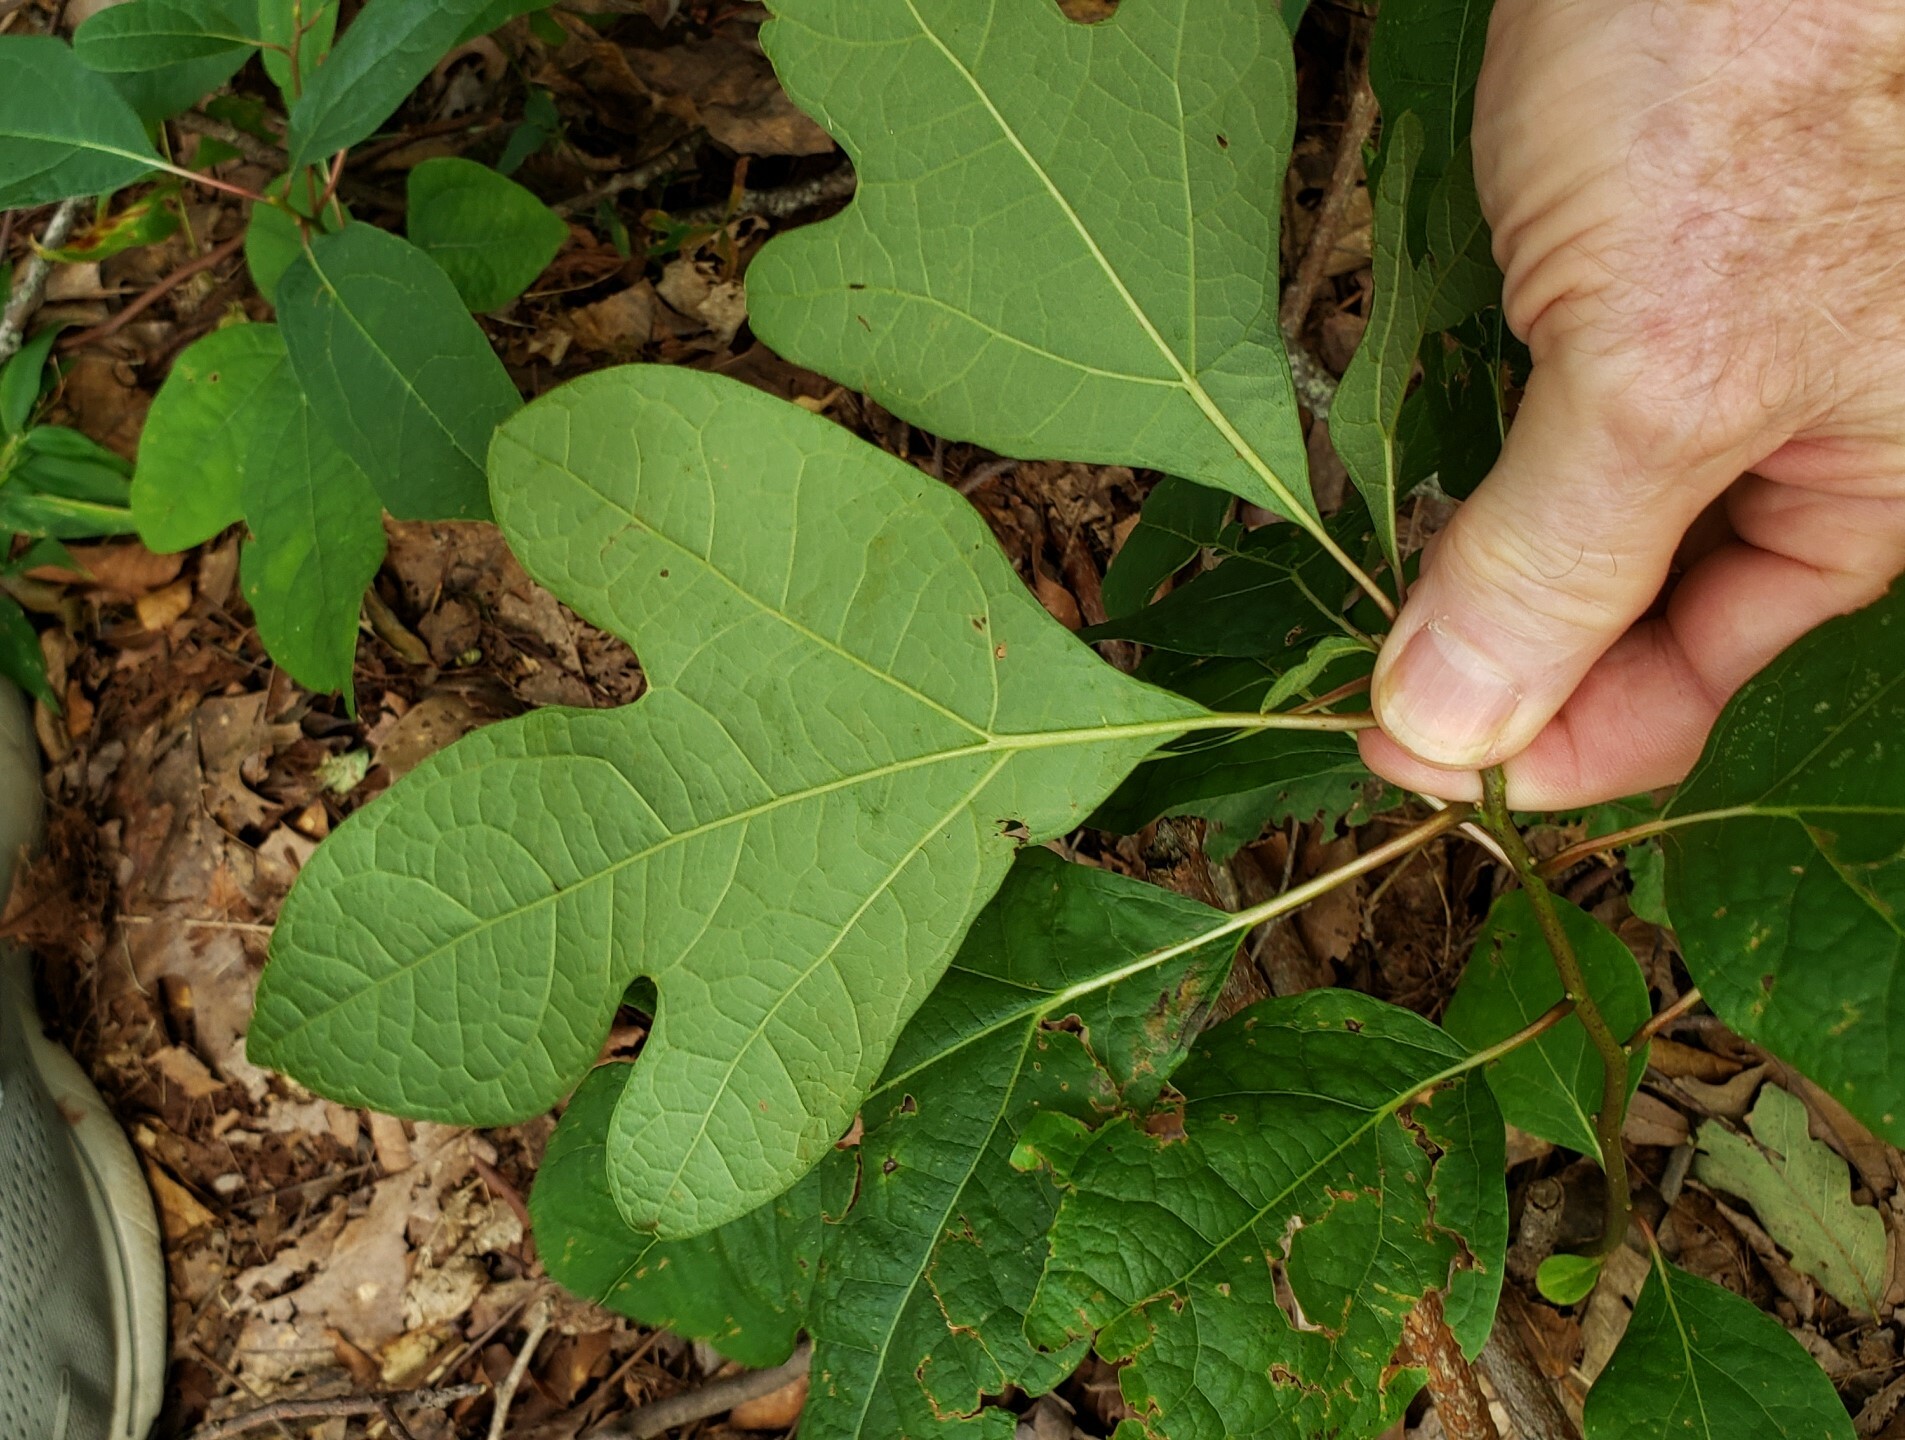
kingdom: Plantae
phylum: Tracheophyta
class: Magnoliopsida
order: Laurales
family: Lauraceae
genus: Sassafras
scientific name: Sassafras albidum
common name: Sassafras
